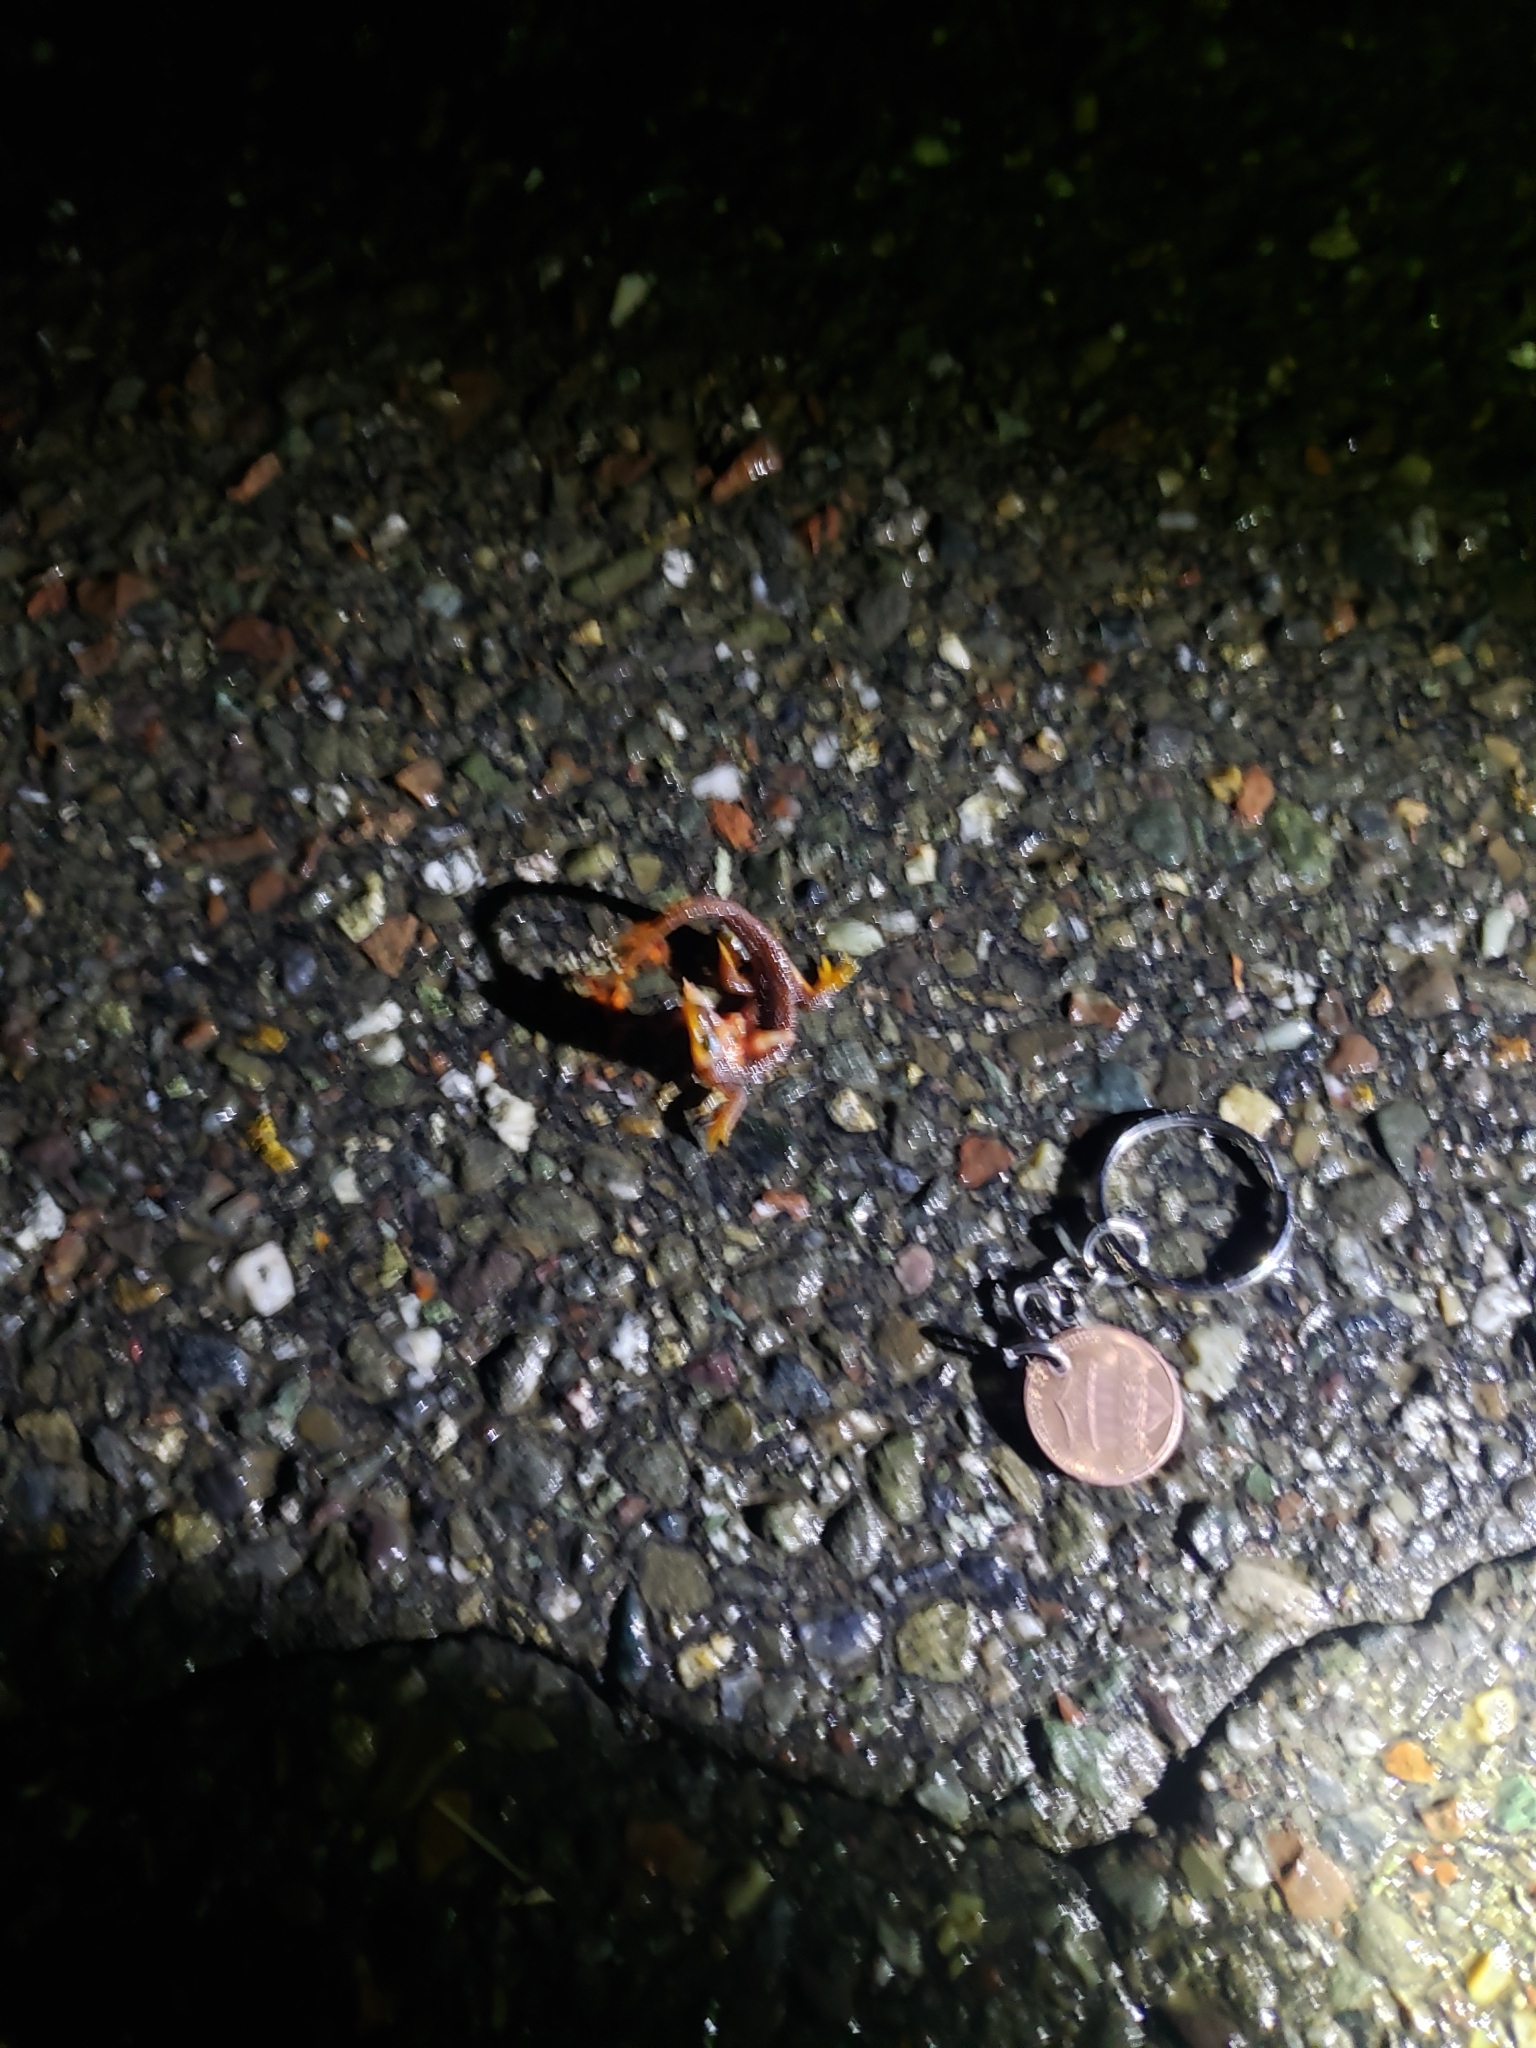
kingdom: Animalia
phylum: Chordata
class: Amphibia
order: Caudata
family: Salamandridae
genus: Taricha
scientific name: Taricha
